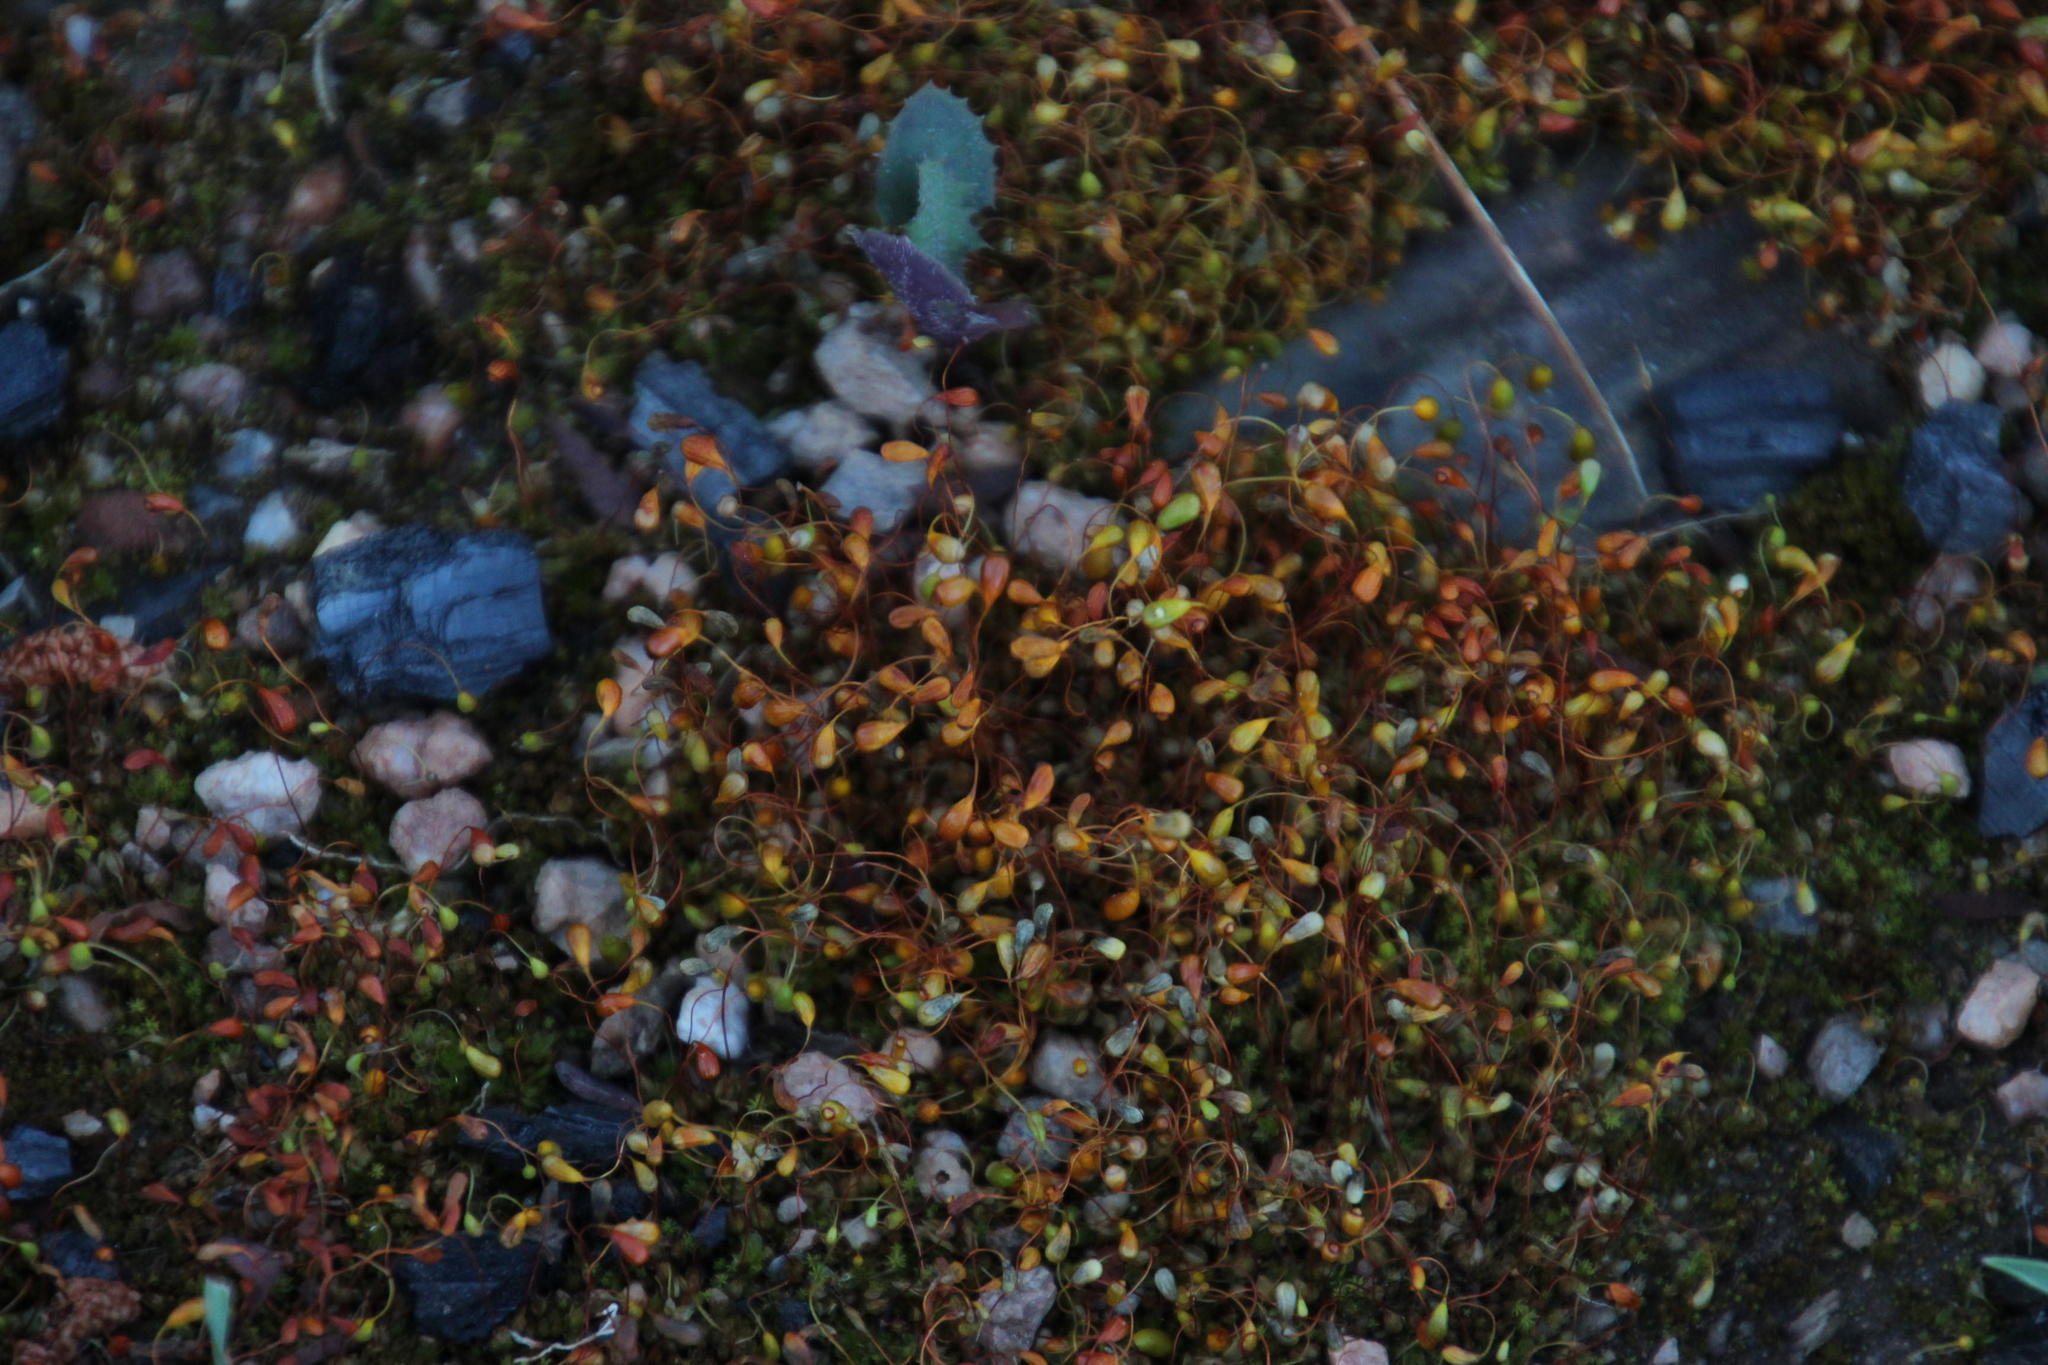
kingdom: Plantae
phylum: Bryophyta
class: Bryopsida
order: Funariales
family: Funariaceae
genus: Funaria
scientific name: Funaria hygrometrica
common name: Common cord moss
